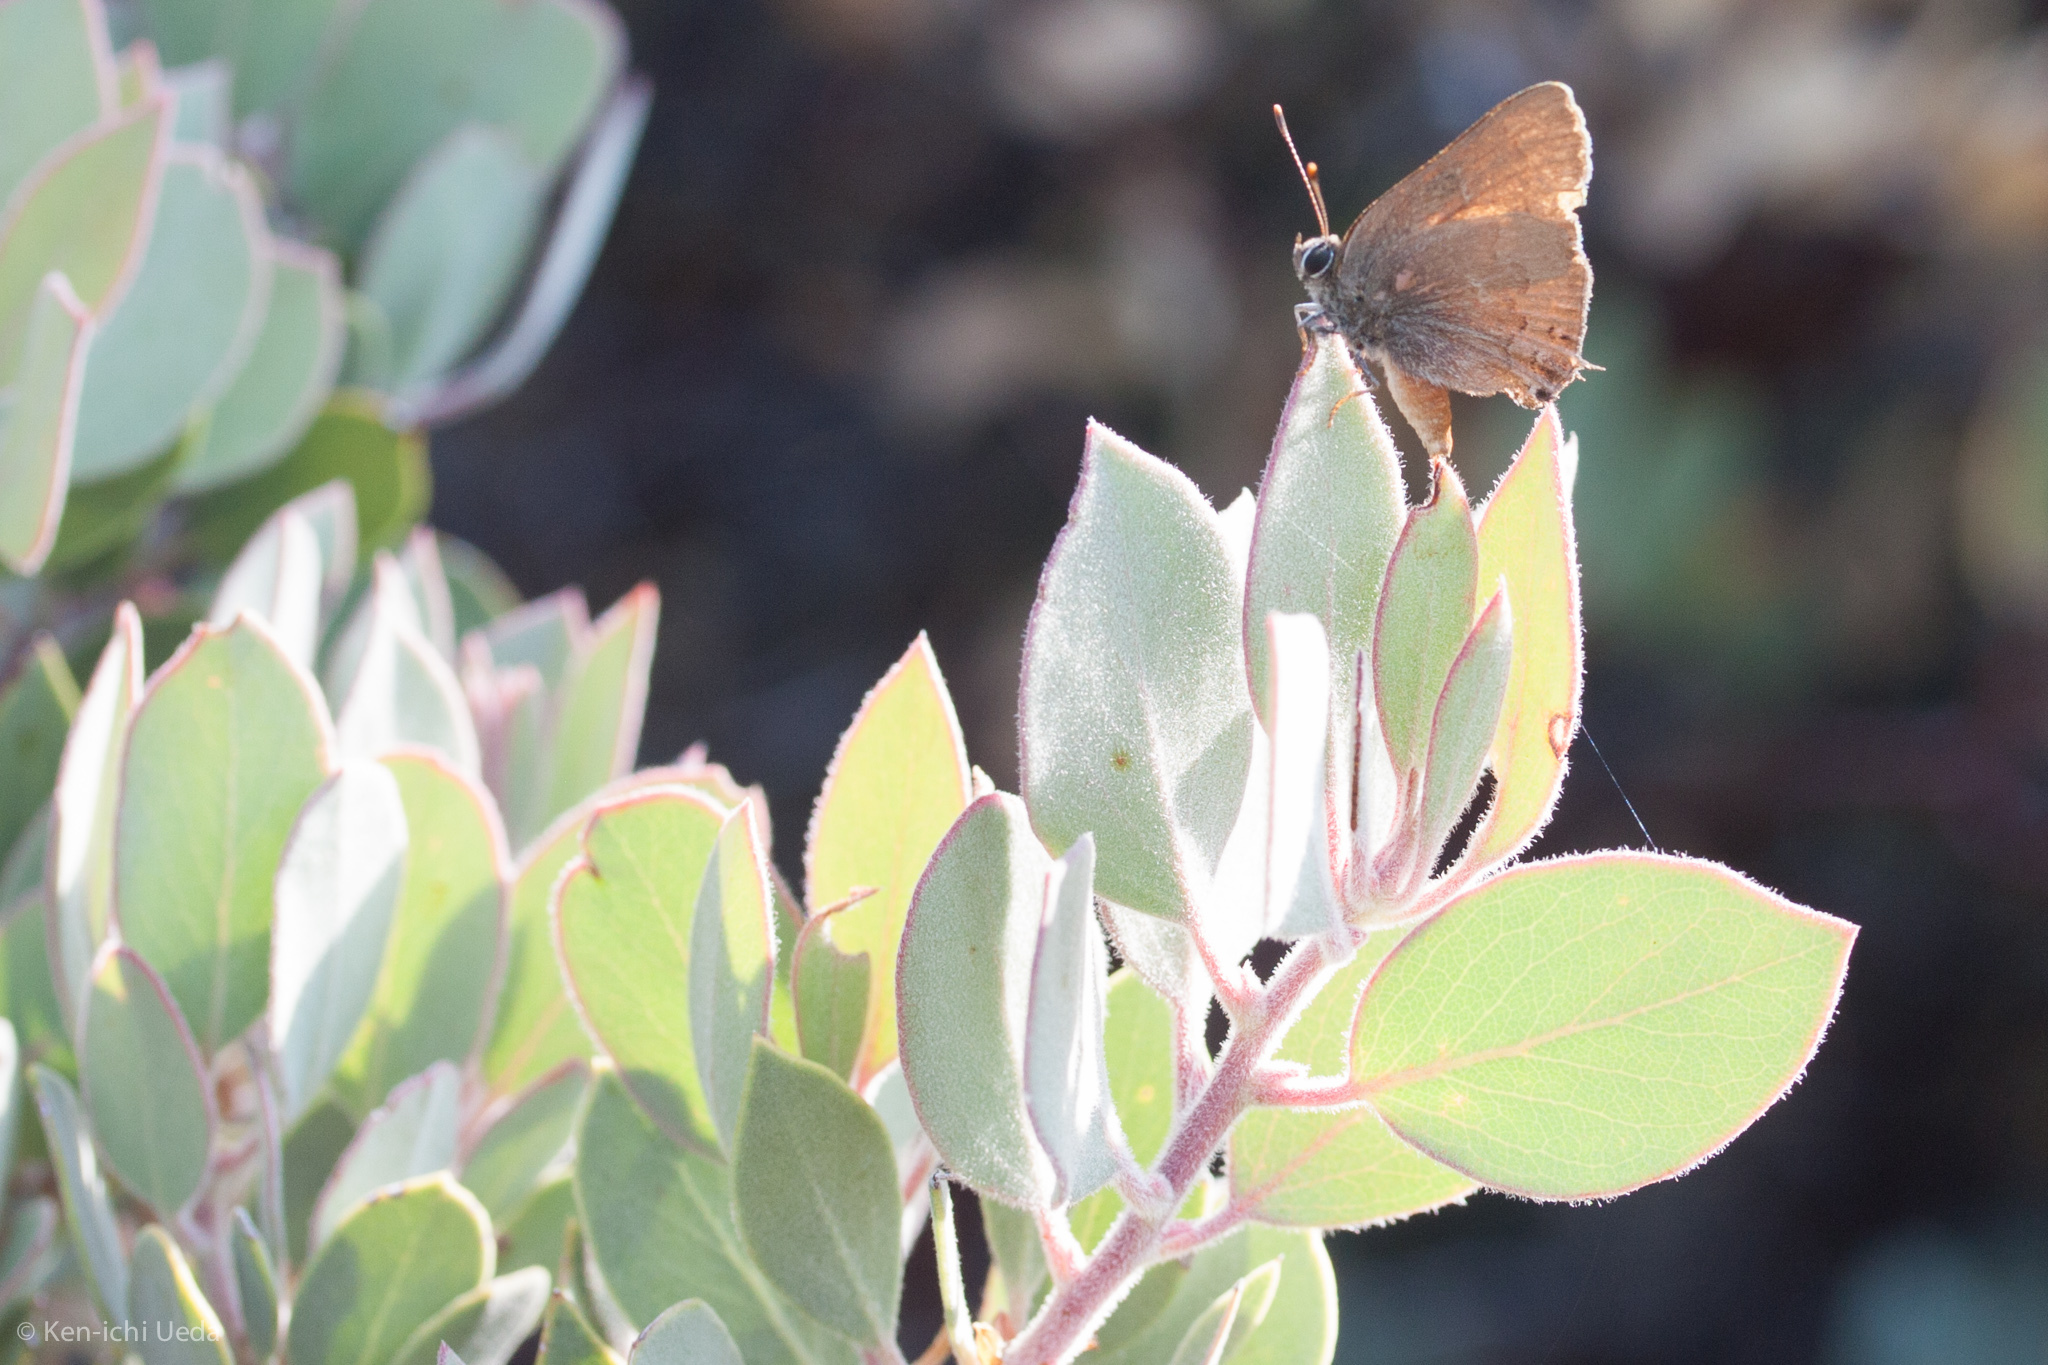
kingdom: Animalia
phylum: Arthropoda
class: Insecta
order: Lepidoptera
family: Lycaenidae
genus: Strymon
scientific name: Strymon saepium
